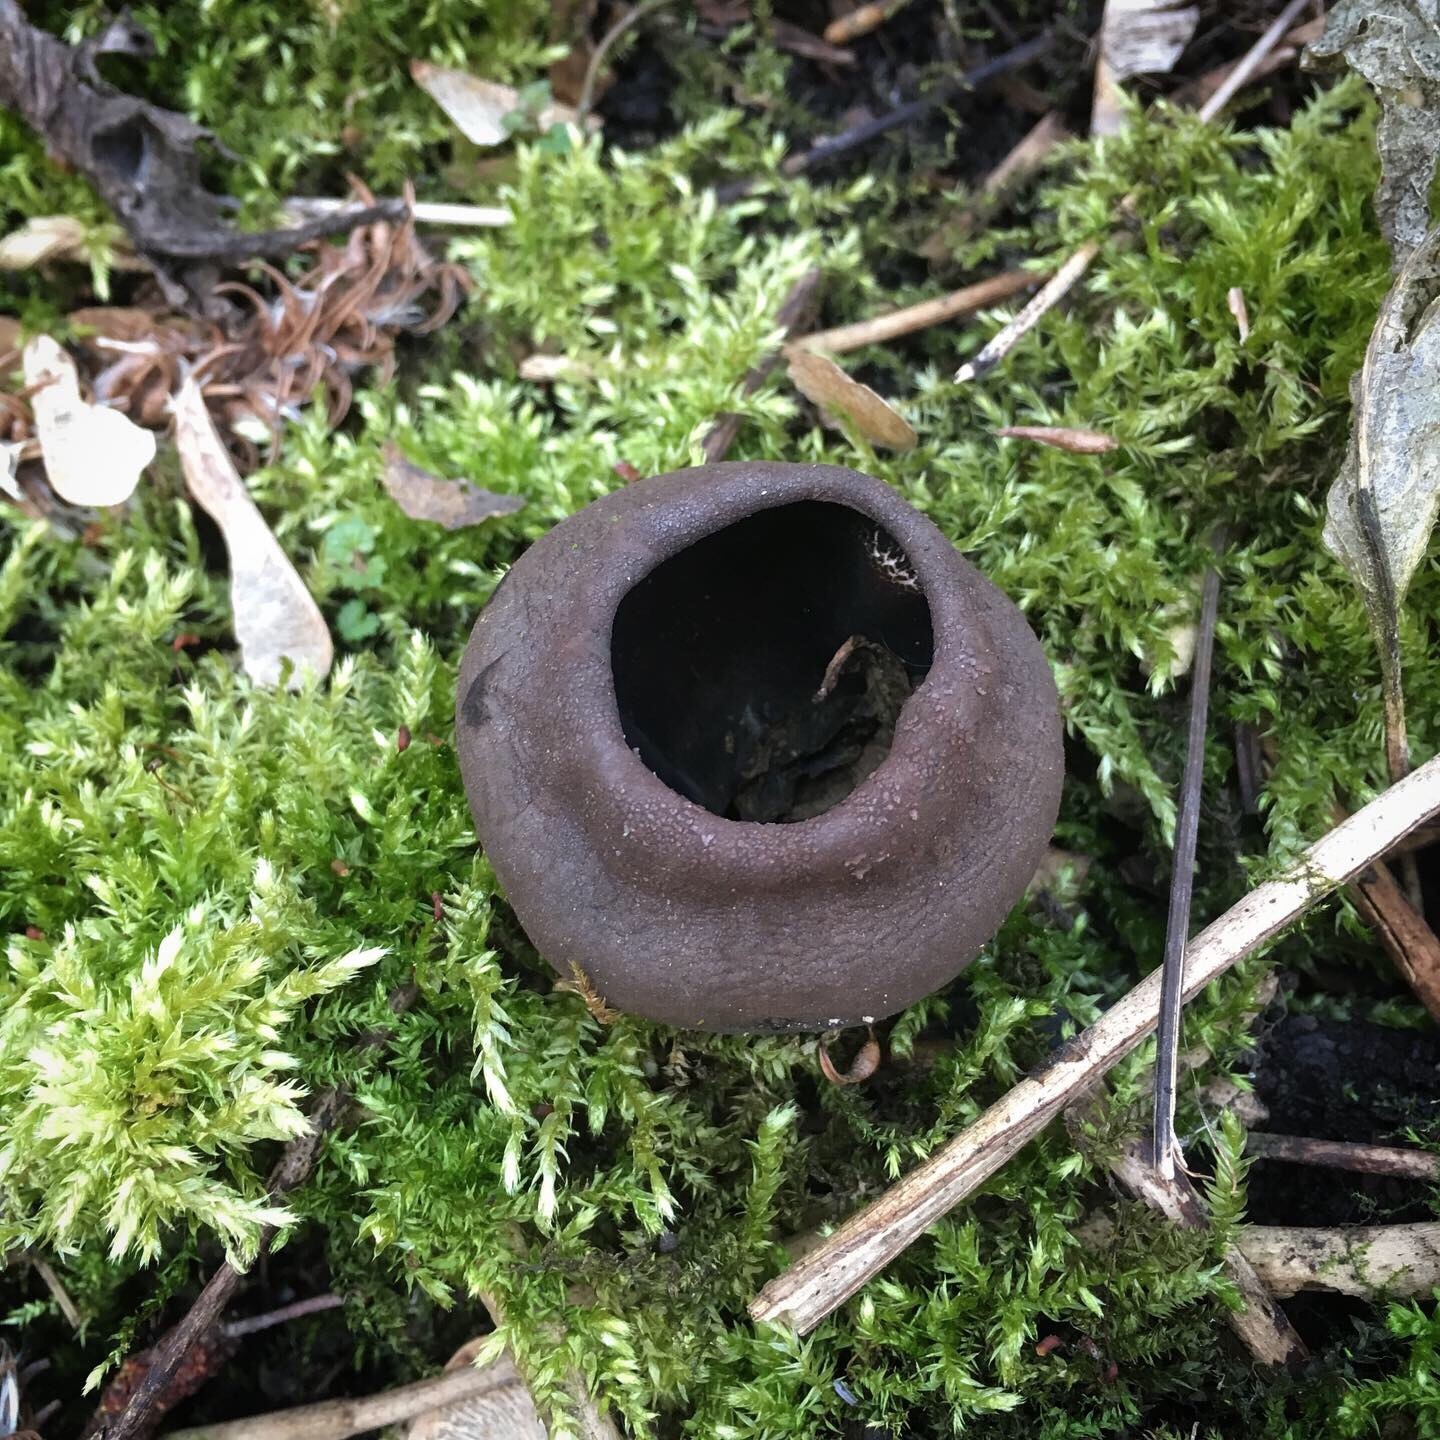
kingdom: Fungi
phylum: Ascomycota
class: Pezizomycetes
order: Pezizales
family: Sarcosomataceae
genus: Urnula
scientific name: Urnula craterium
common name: Devil's urn
